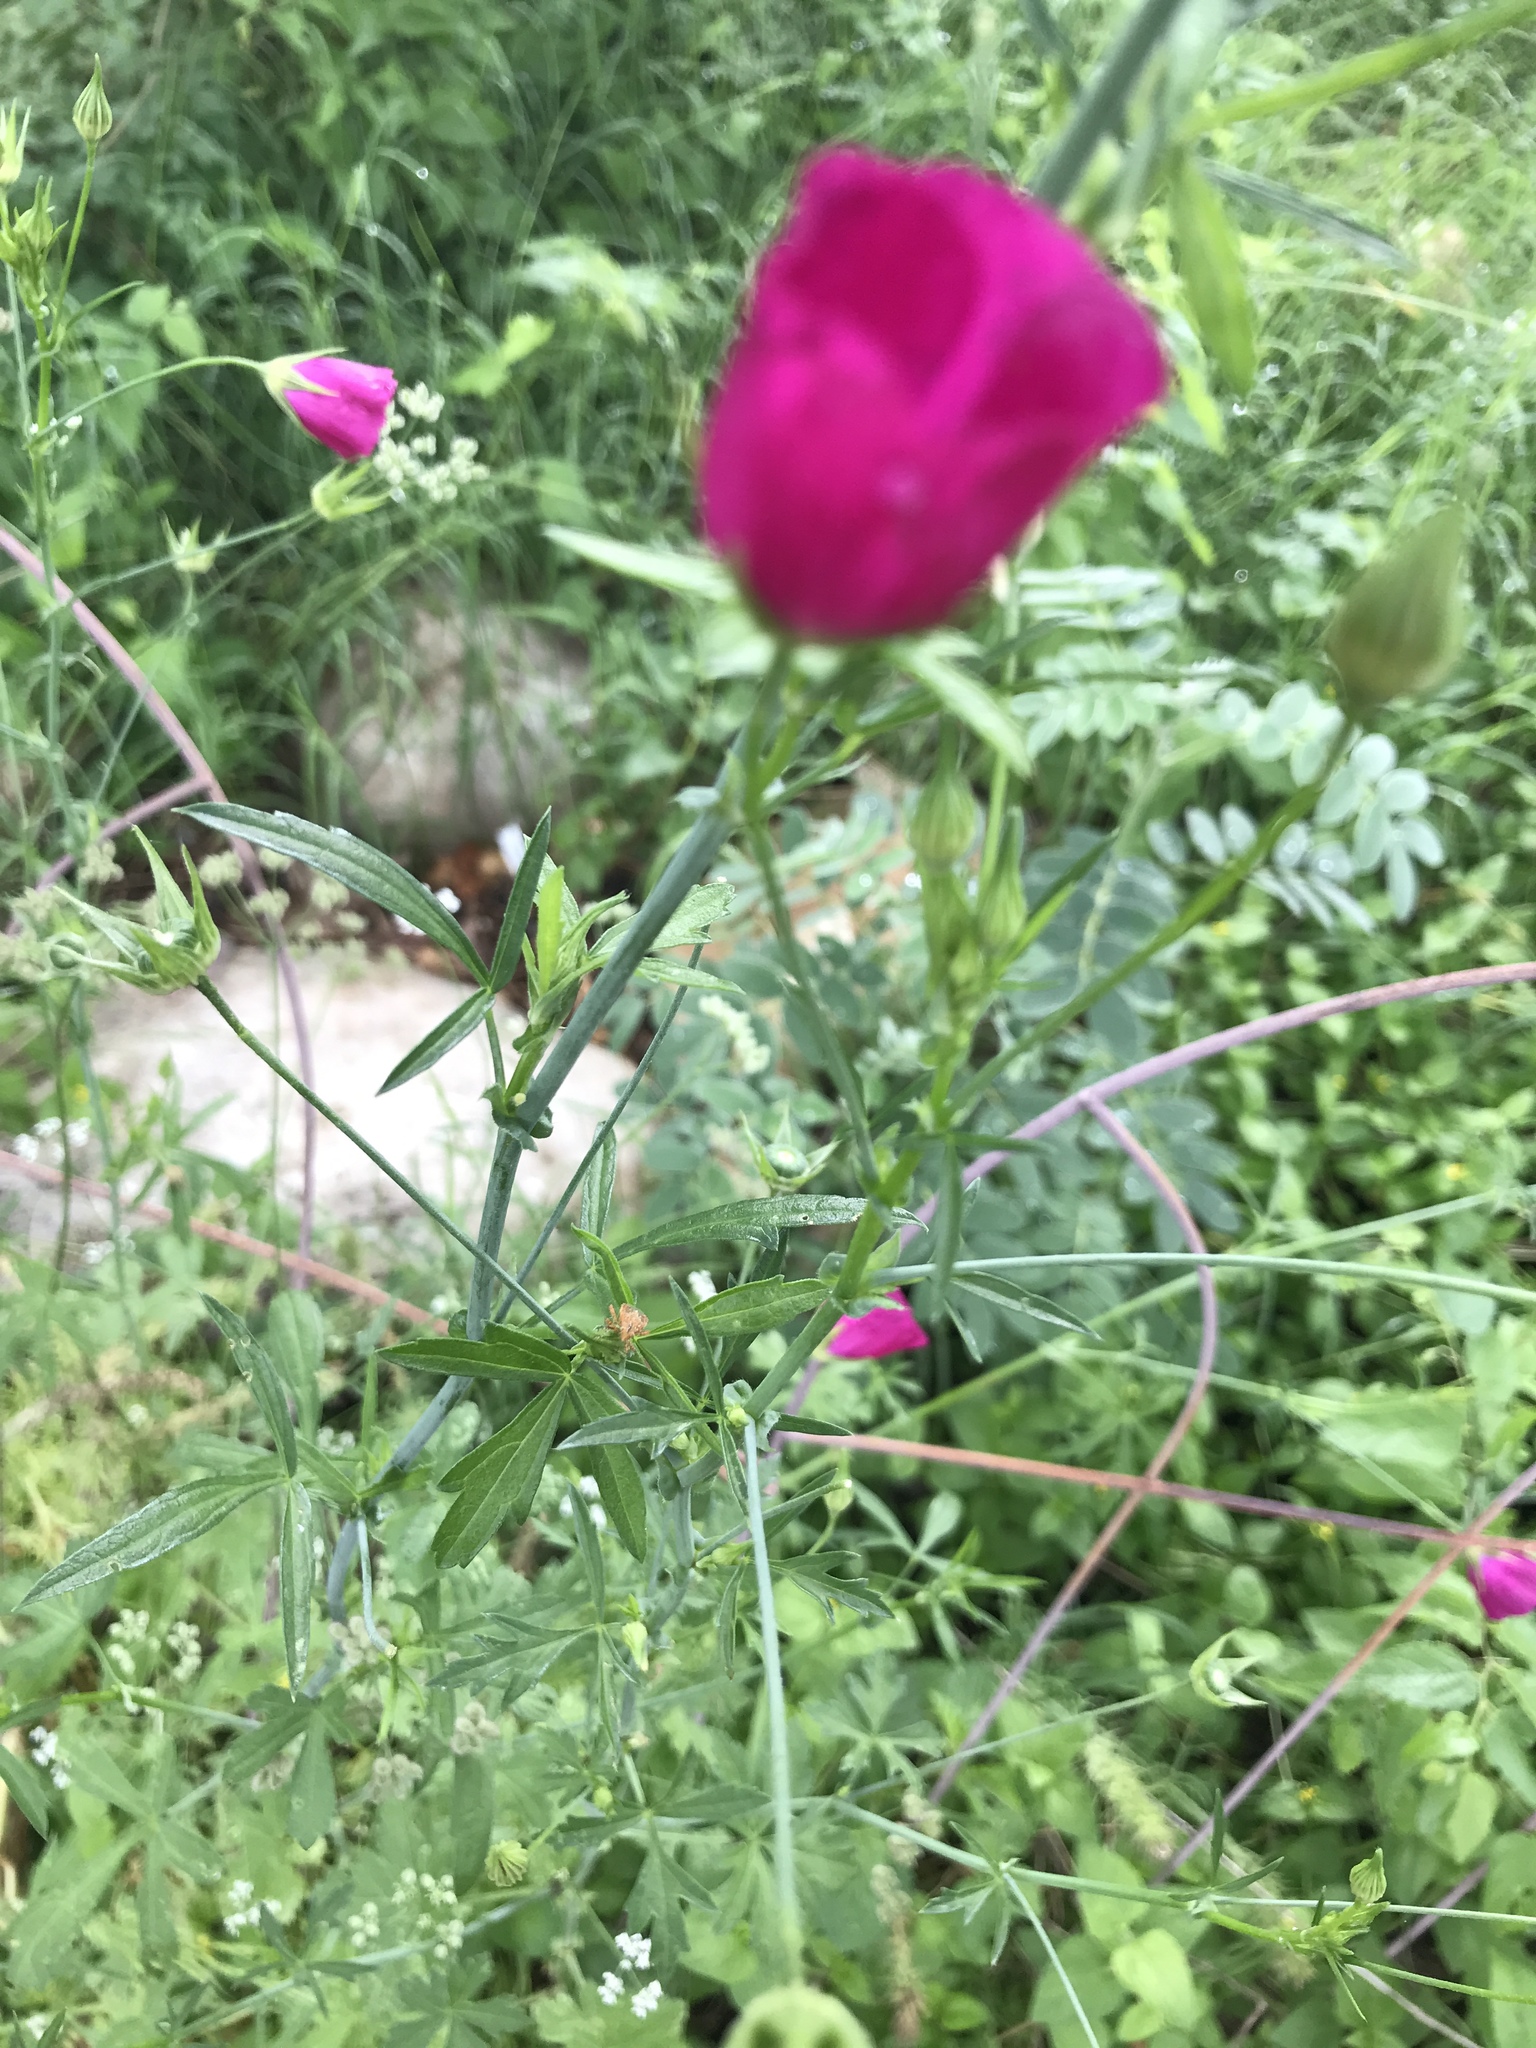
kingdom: Plantae
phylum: Tracheophyta
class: Magnoliopsida
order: Malvales
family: Malvaceae
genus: Callirhoe
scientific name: Callirhoe leiocarpa
